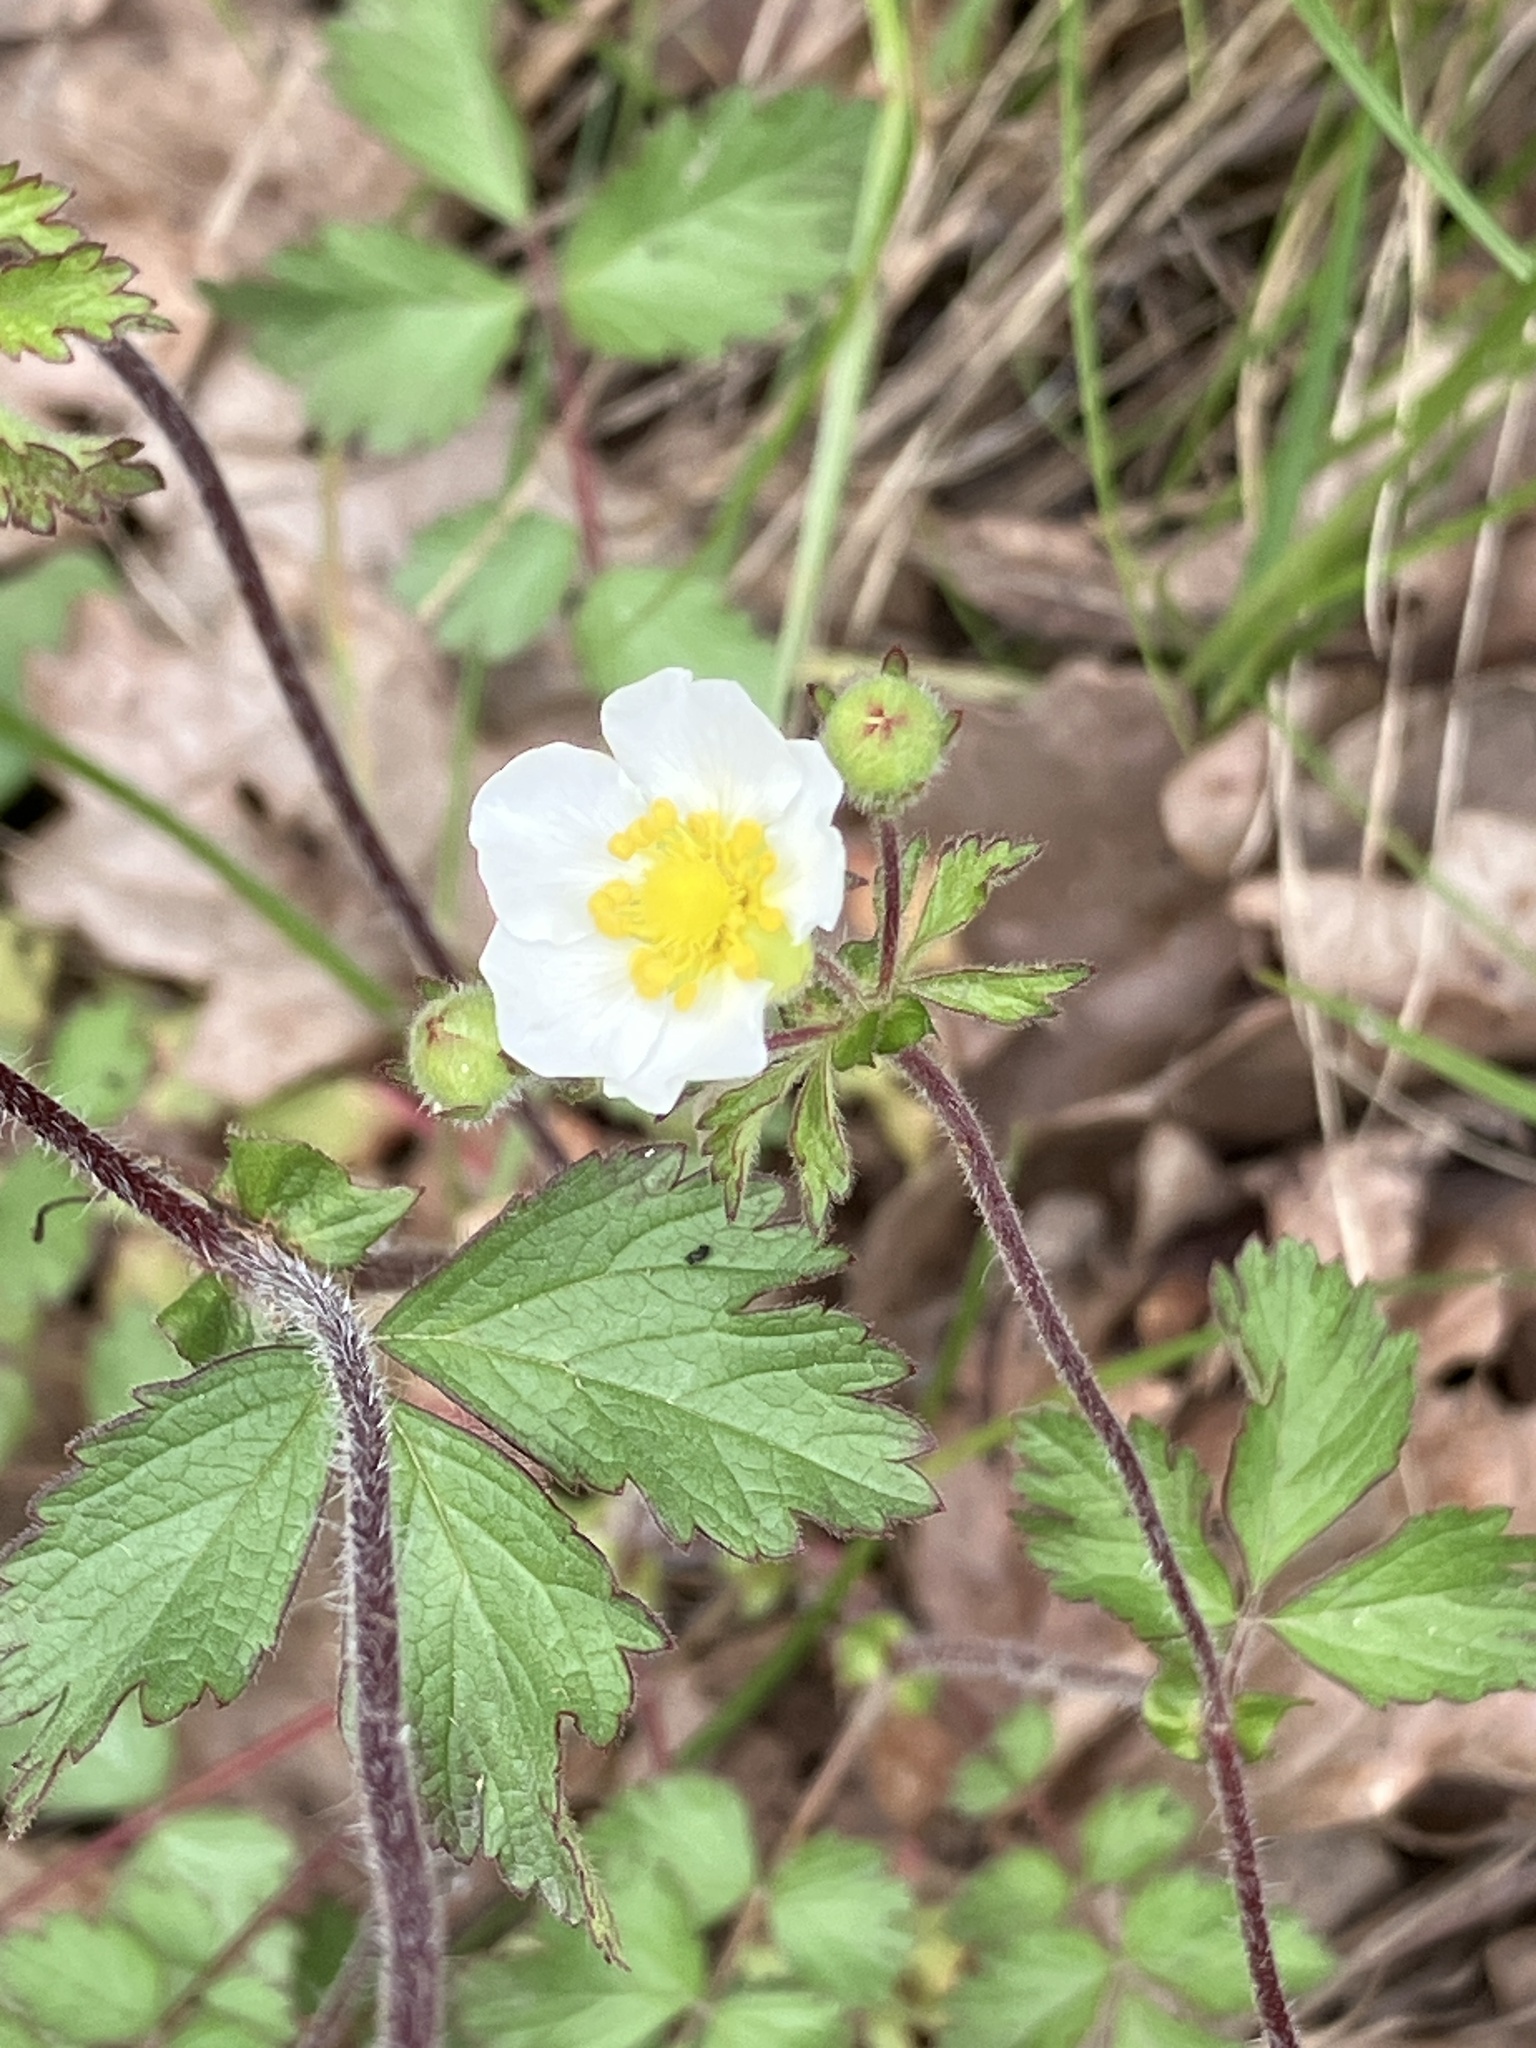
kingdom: Plantae
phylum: Tracheophyta
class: Magnoliopsida
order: Rosales
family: Rosaceae
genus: Drymocallis
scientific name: Drymocallis rupestris
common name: Rock cinquefoil
